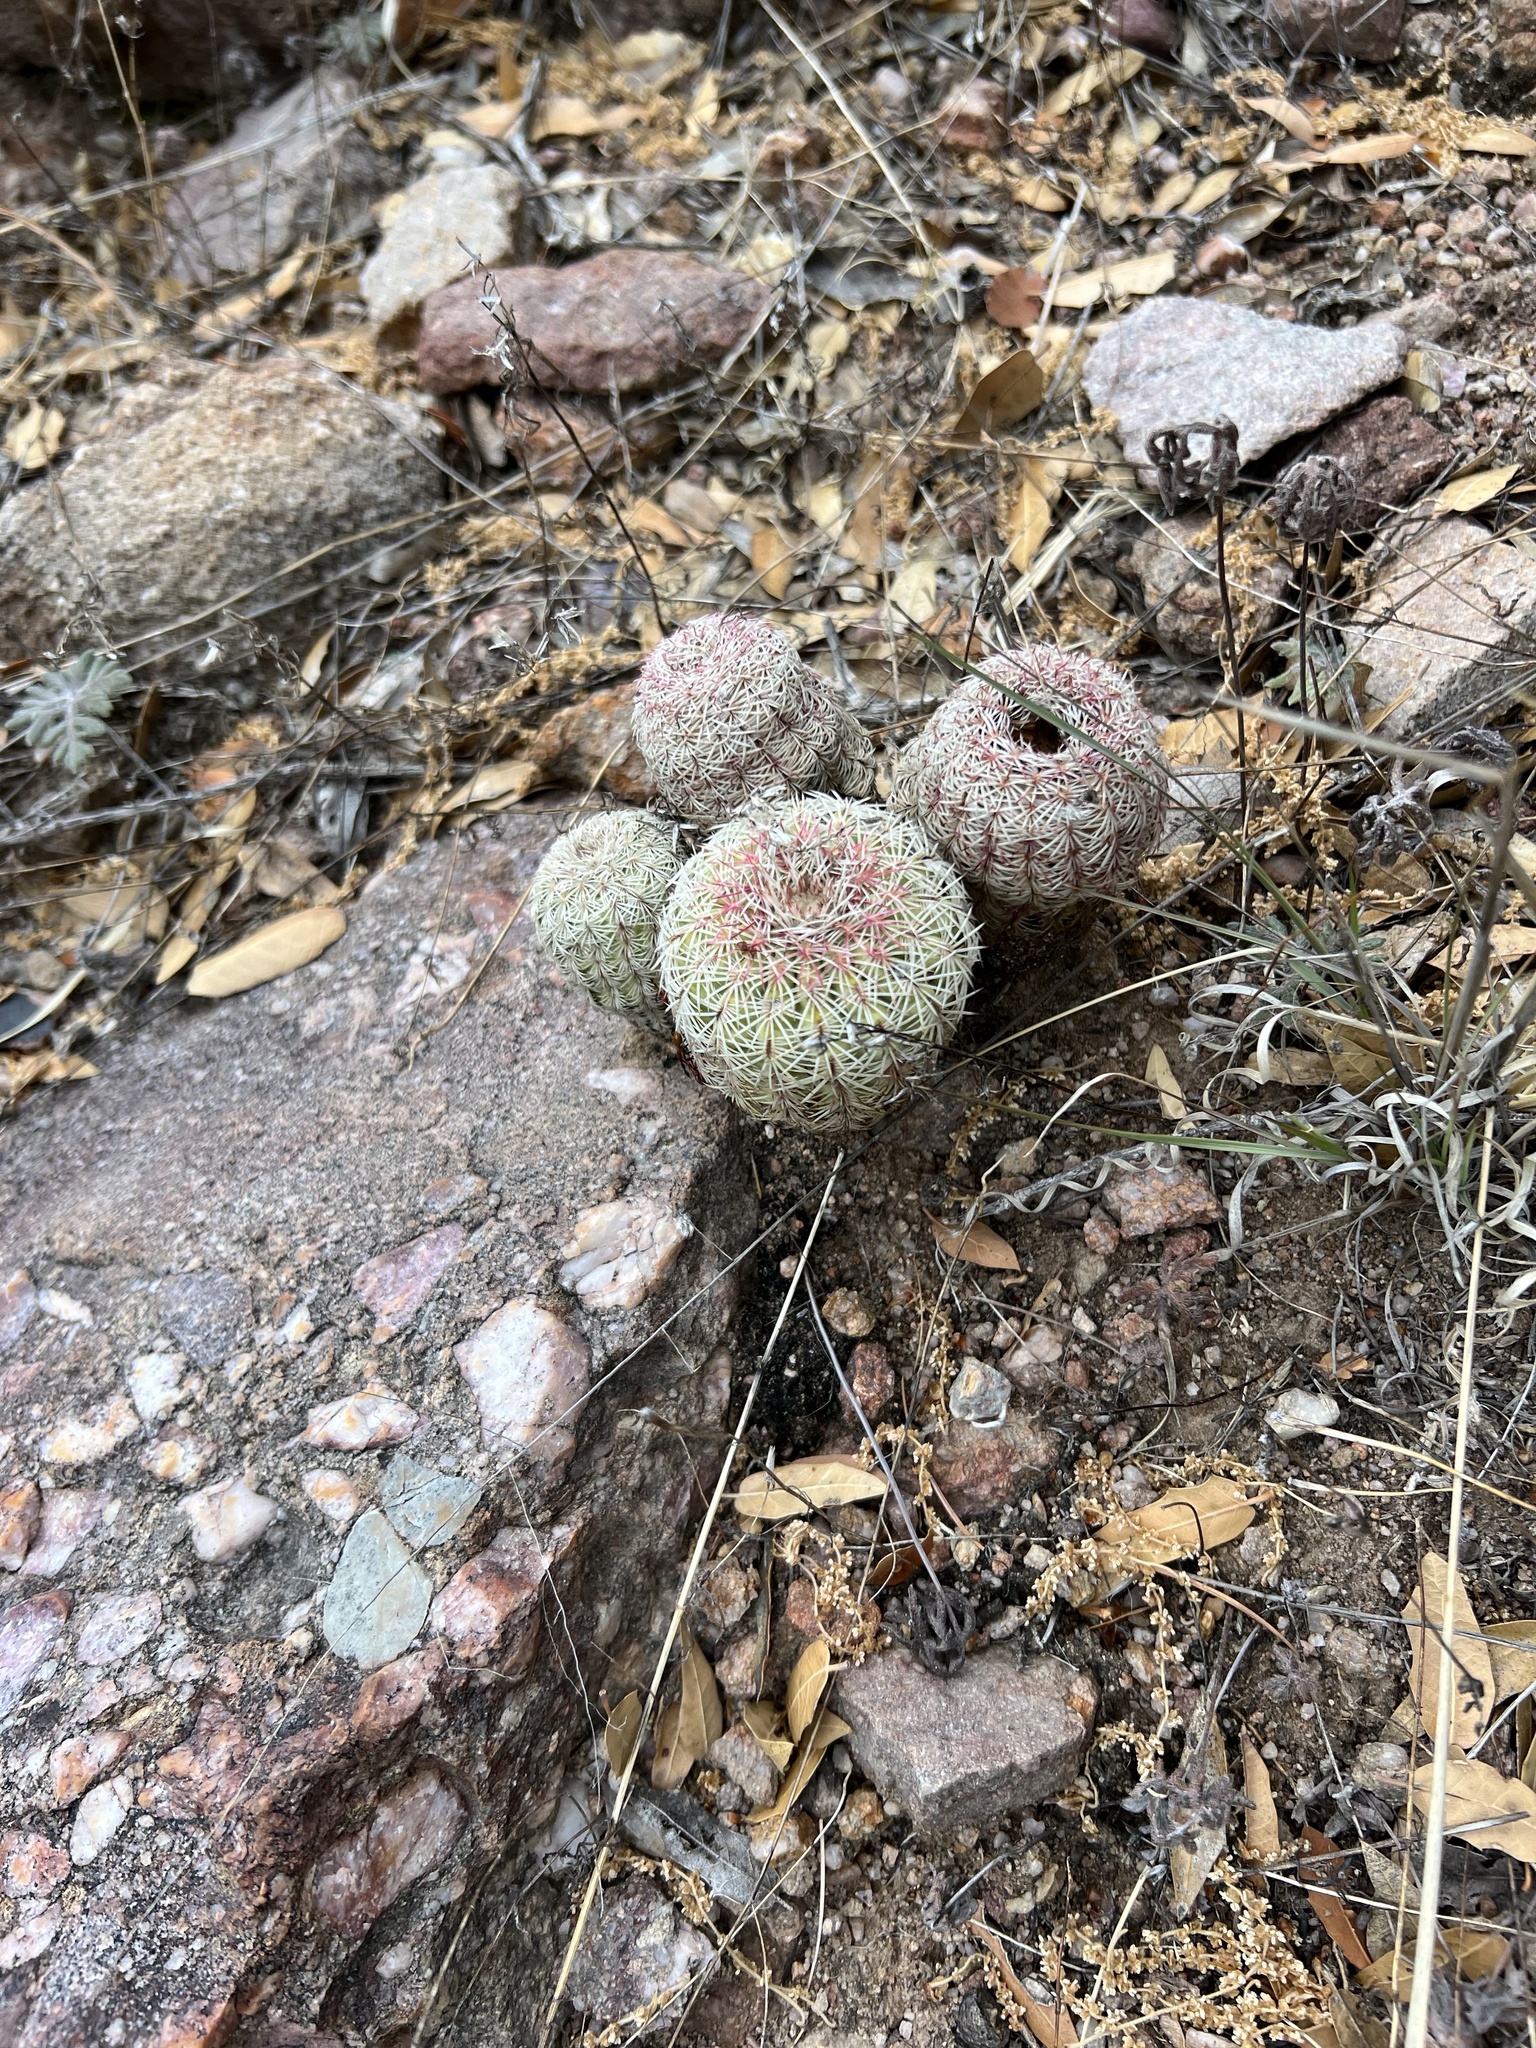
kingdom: Plantae
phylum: Tracheophyta
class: Magnoliopsida
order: Caryophyllales
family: Cactaceae
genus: Echinocereus
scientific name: Echinocereus rigidissimus
